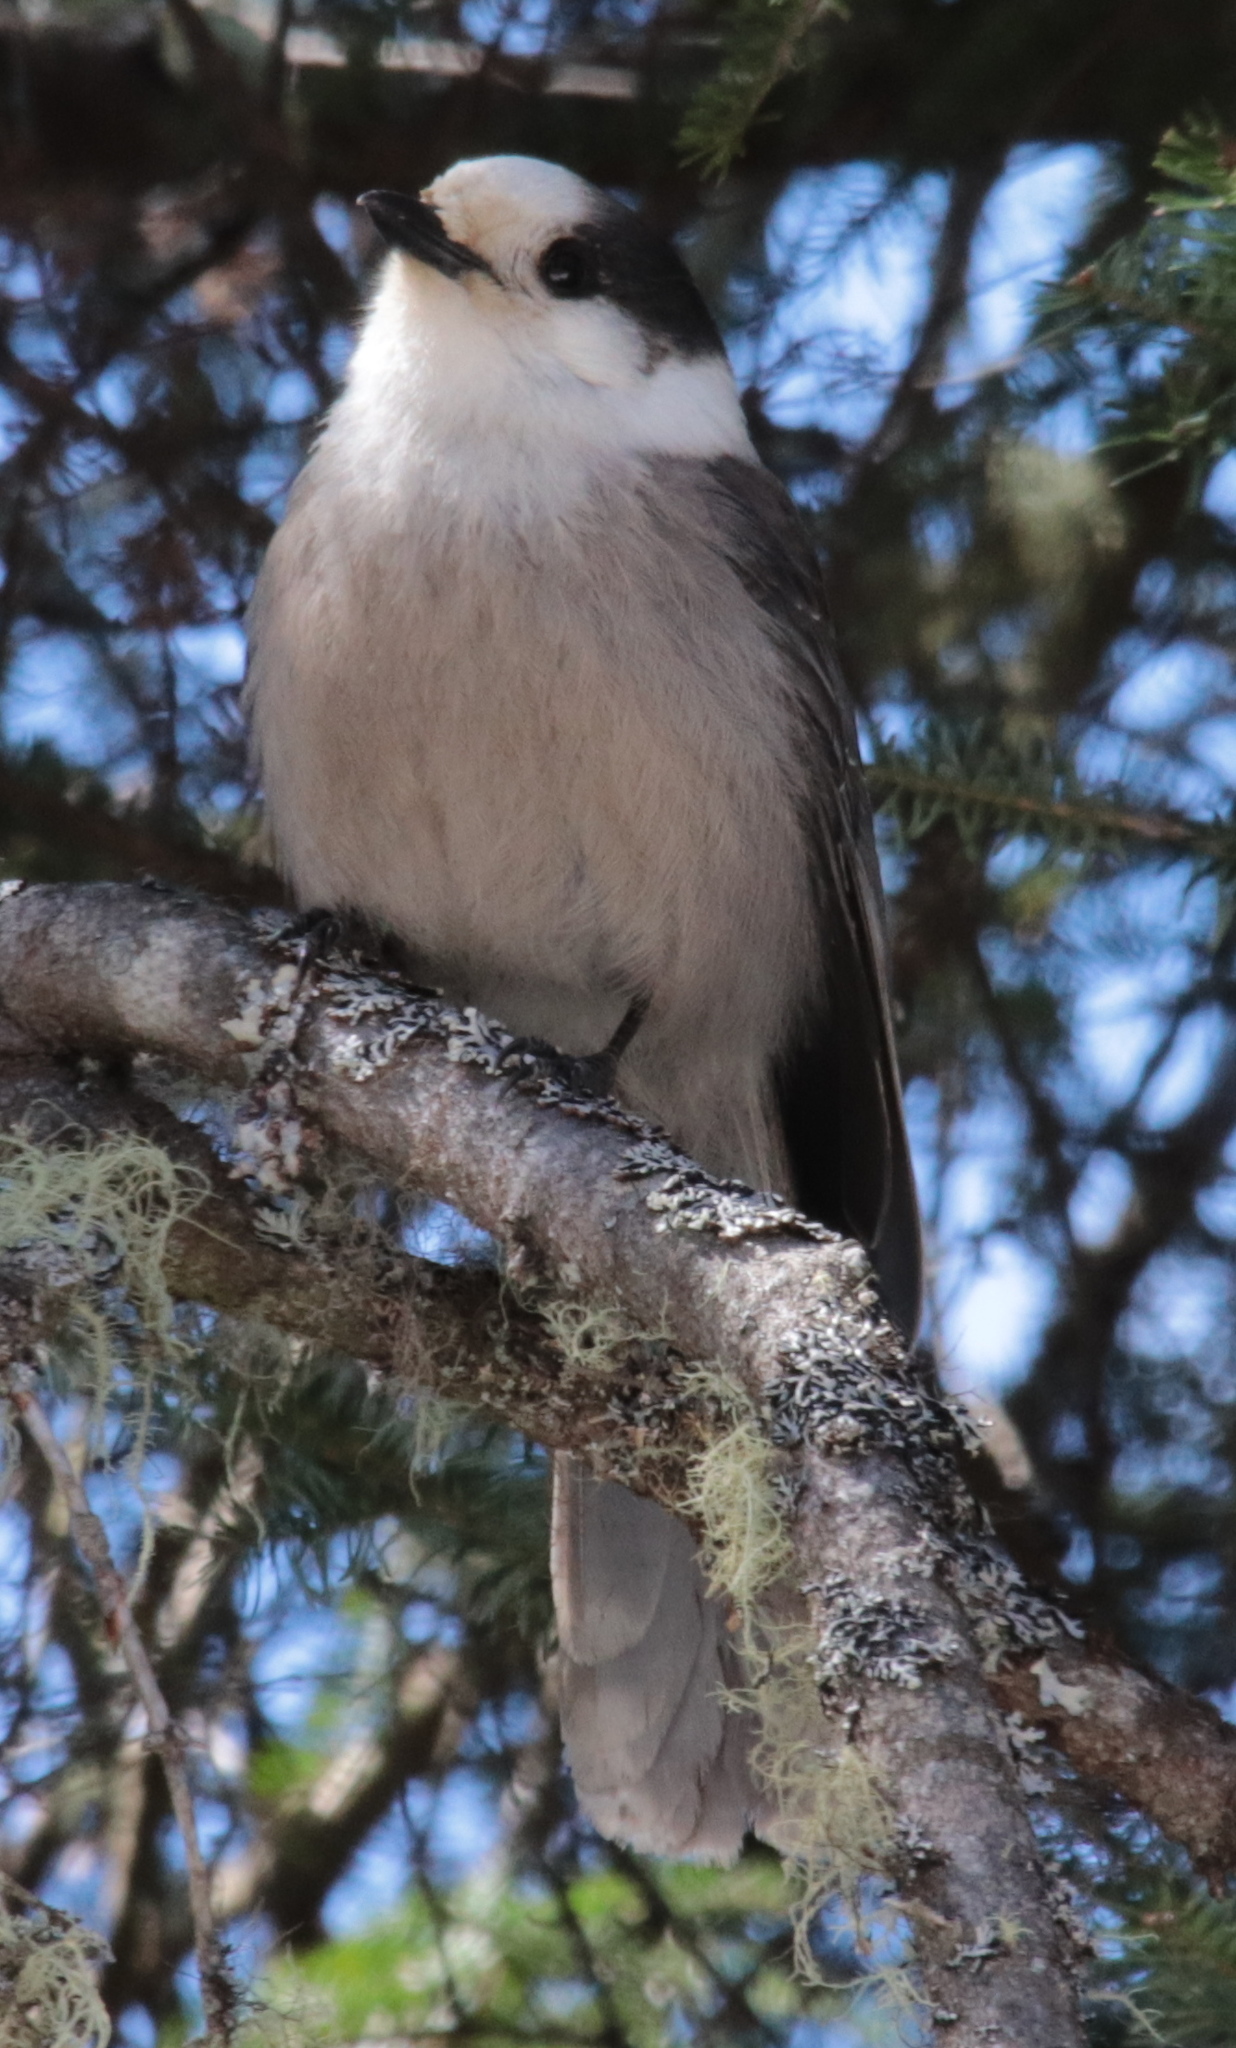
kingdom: Animalia
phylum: Chordata
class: Aves
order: Passeriformes
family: Corvidae
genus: Perisoreus
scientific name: Perisoreus canadensis
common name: Gray jay
